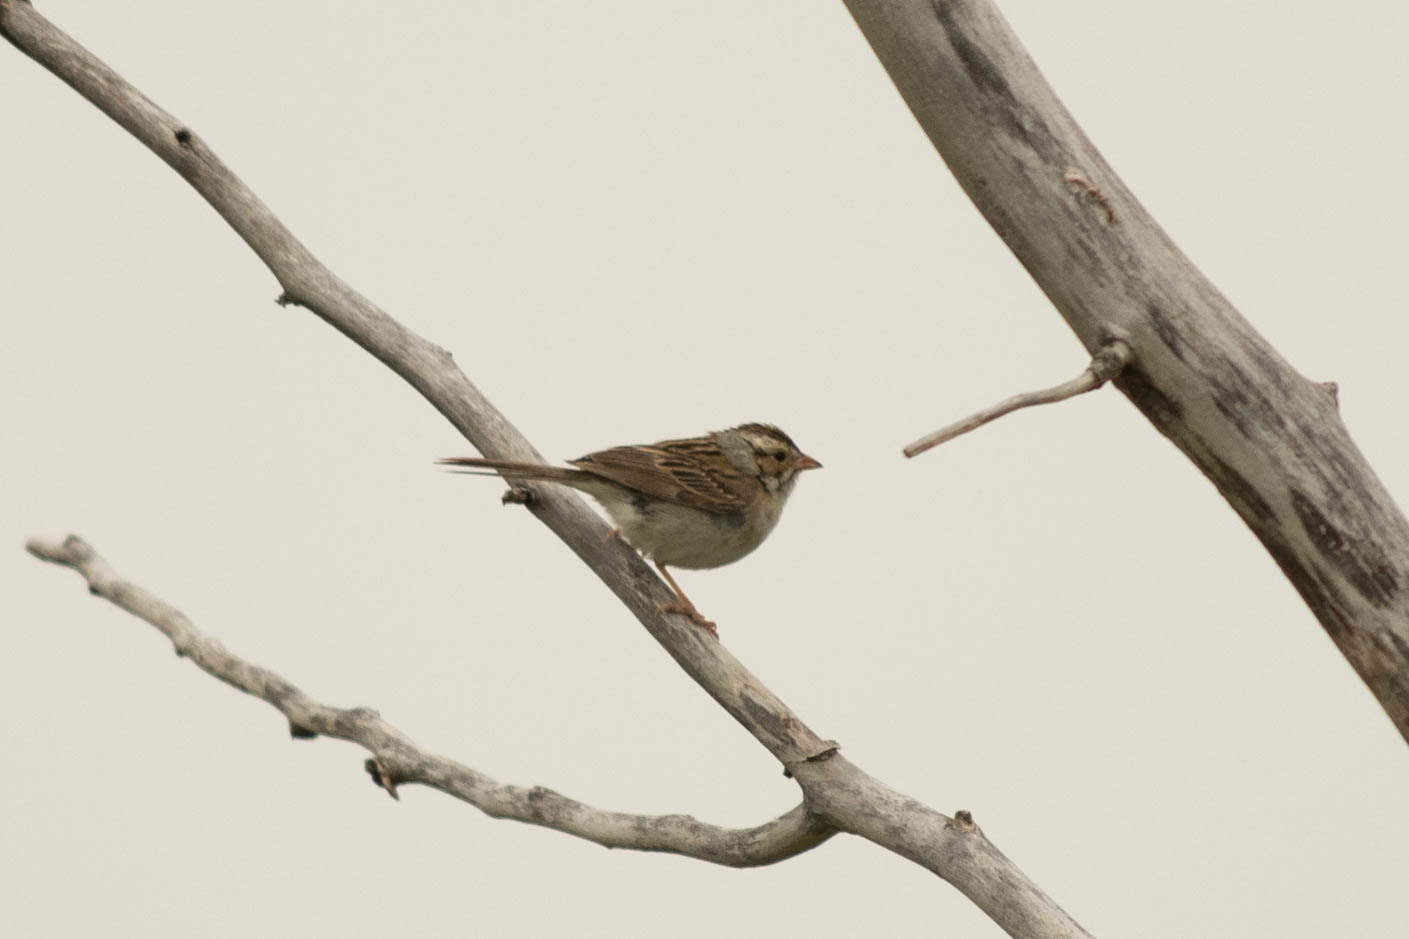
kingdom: Animalia
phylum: Chordata
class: Aves
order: Passeriformes
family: Passerellidae
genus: Spizella
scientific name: Spizella pallida
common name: Clay-colored sparrow
